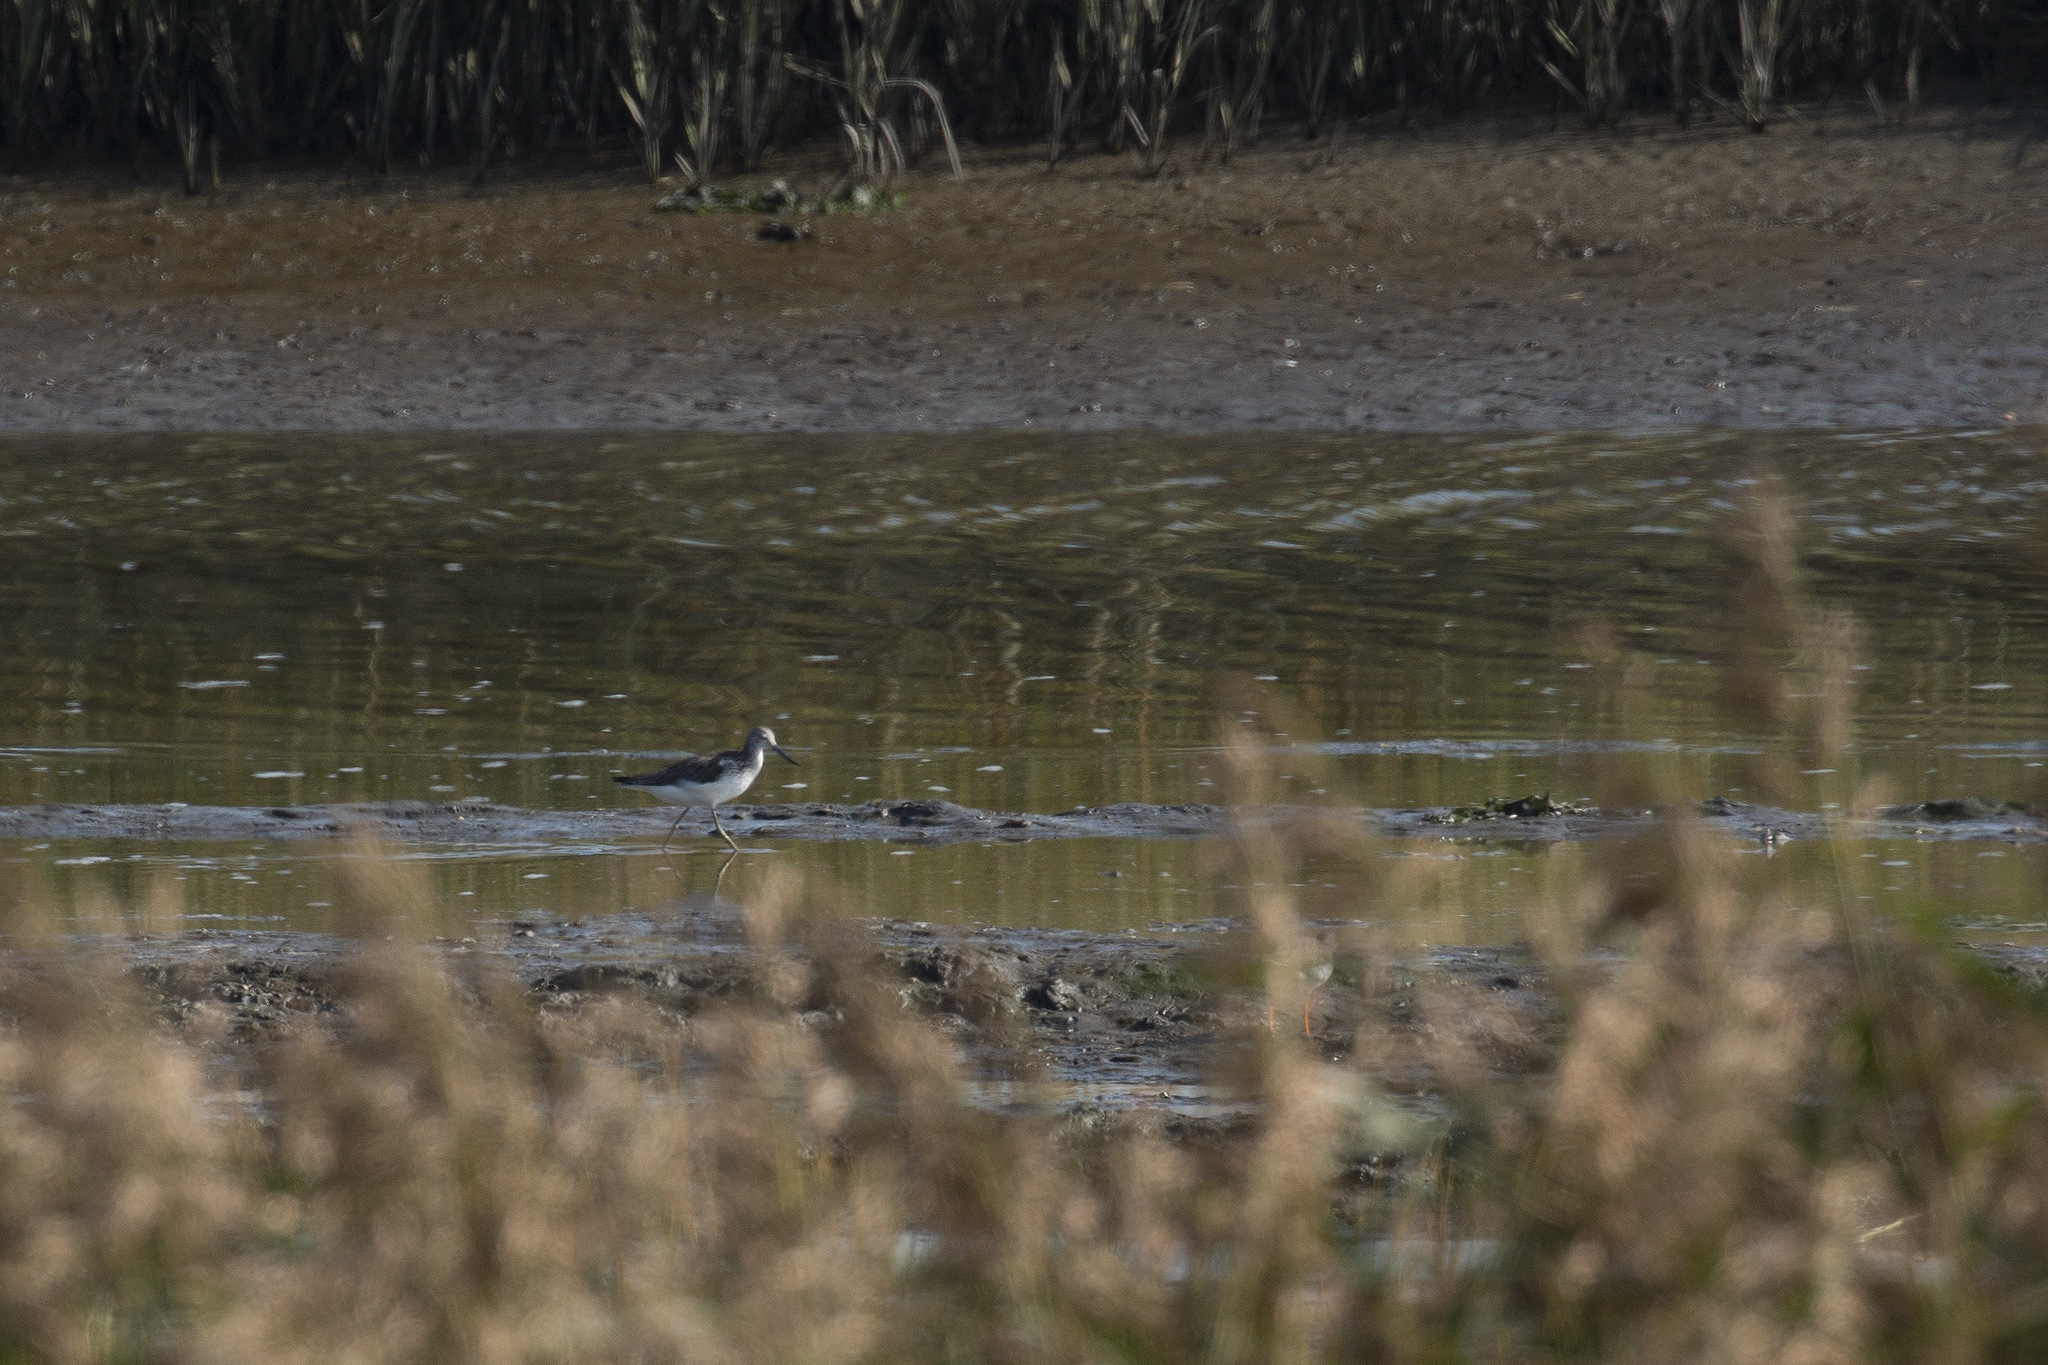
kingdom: Animalia
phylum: Chordata
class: Aves
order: Charadriiformes
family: Scolopacidae
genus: Tringa
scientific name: Tringa nebularia
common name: Common greenshank
